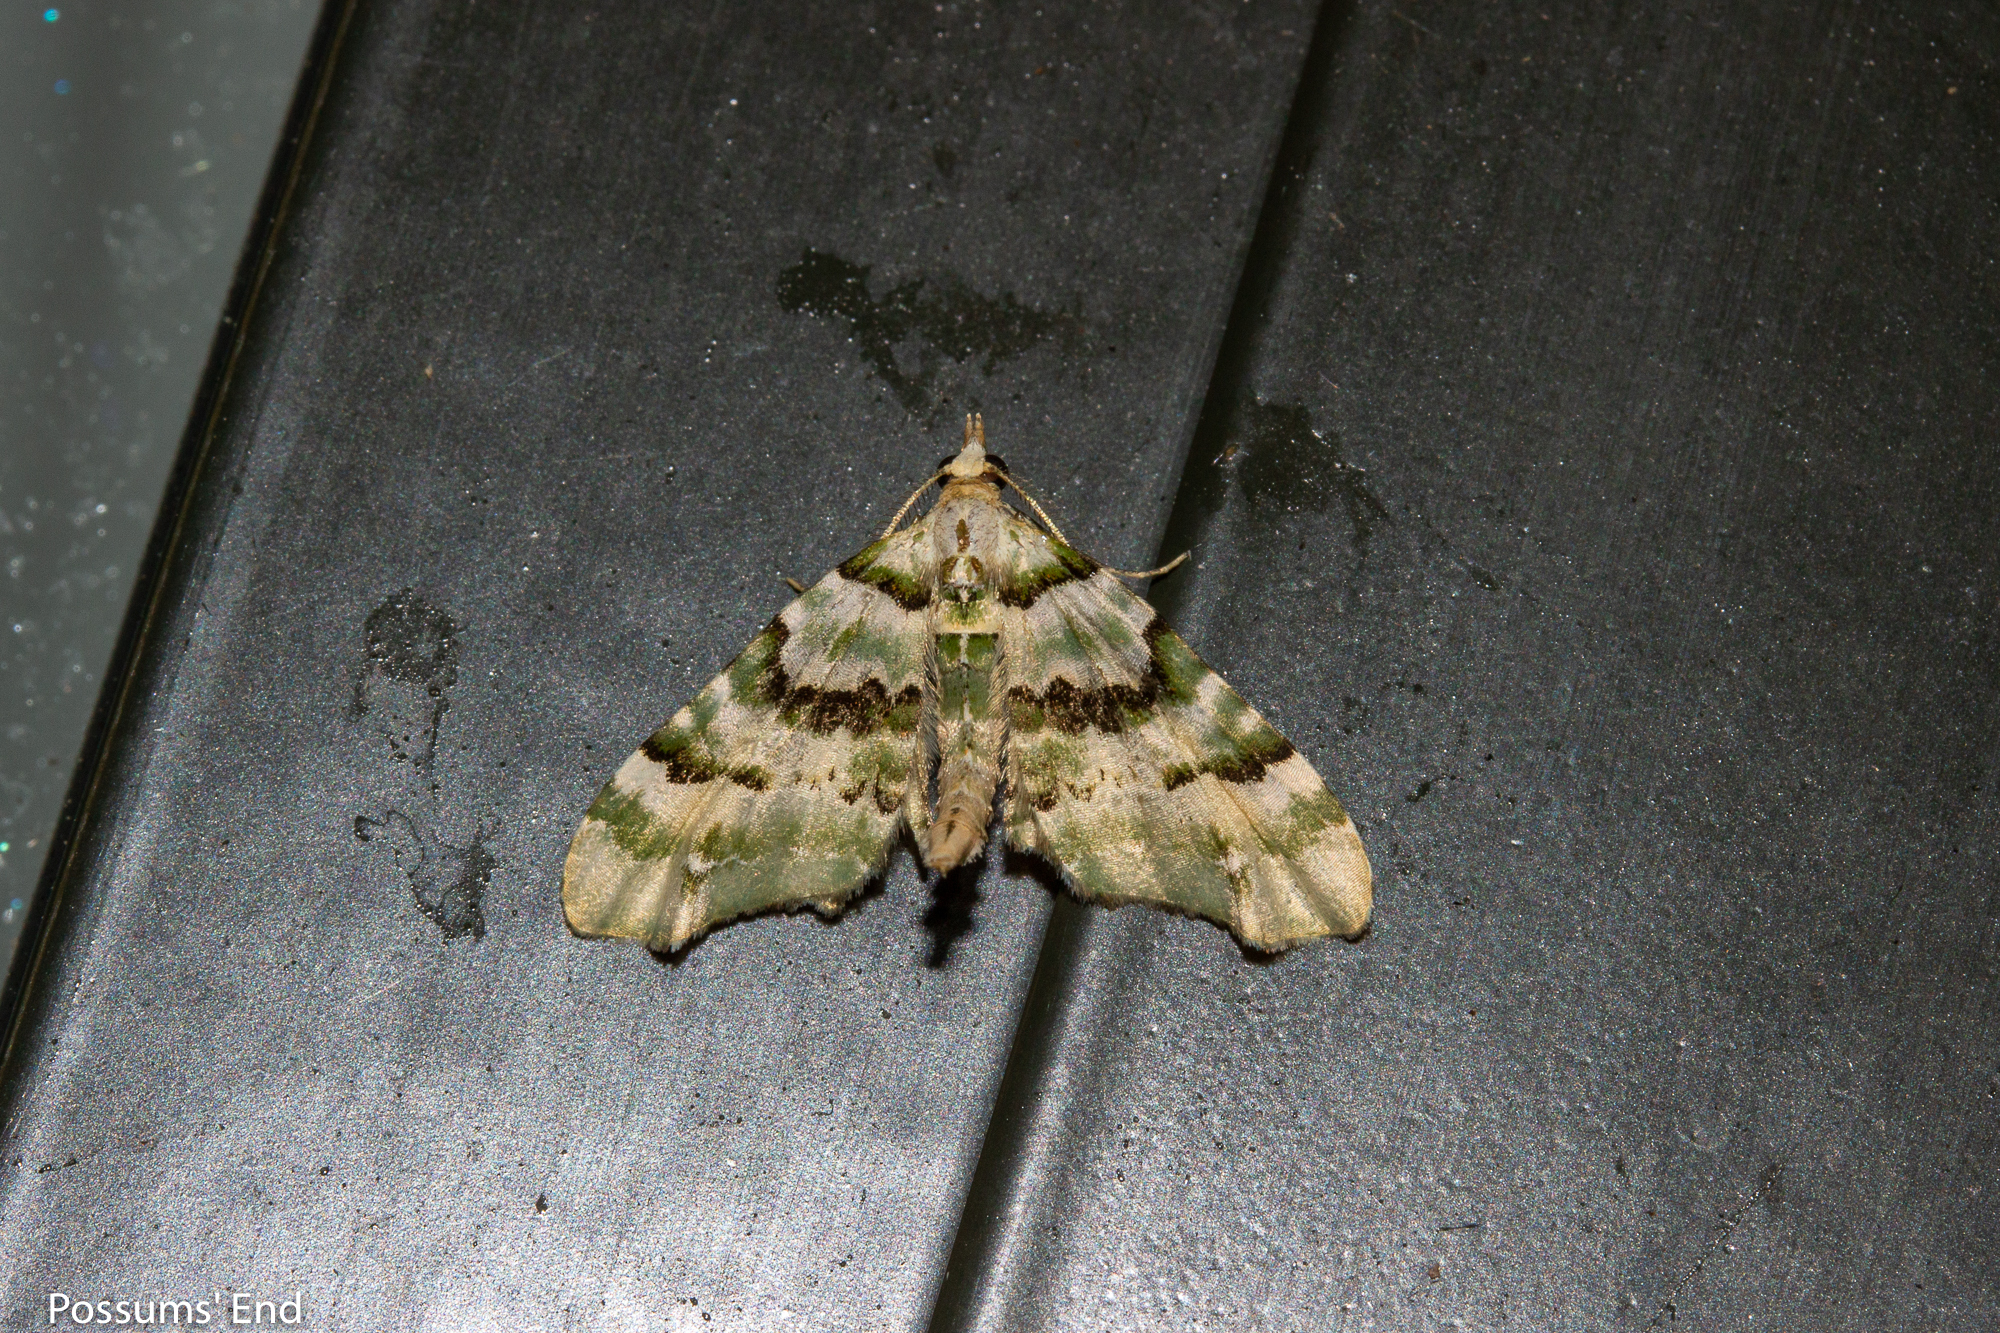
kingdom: Animalia
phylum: Arthropoda
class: Insecta
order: Lepidoptera
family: Geometridae
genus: Elvia
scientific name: Elvia glaucata
